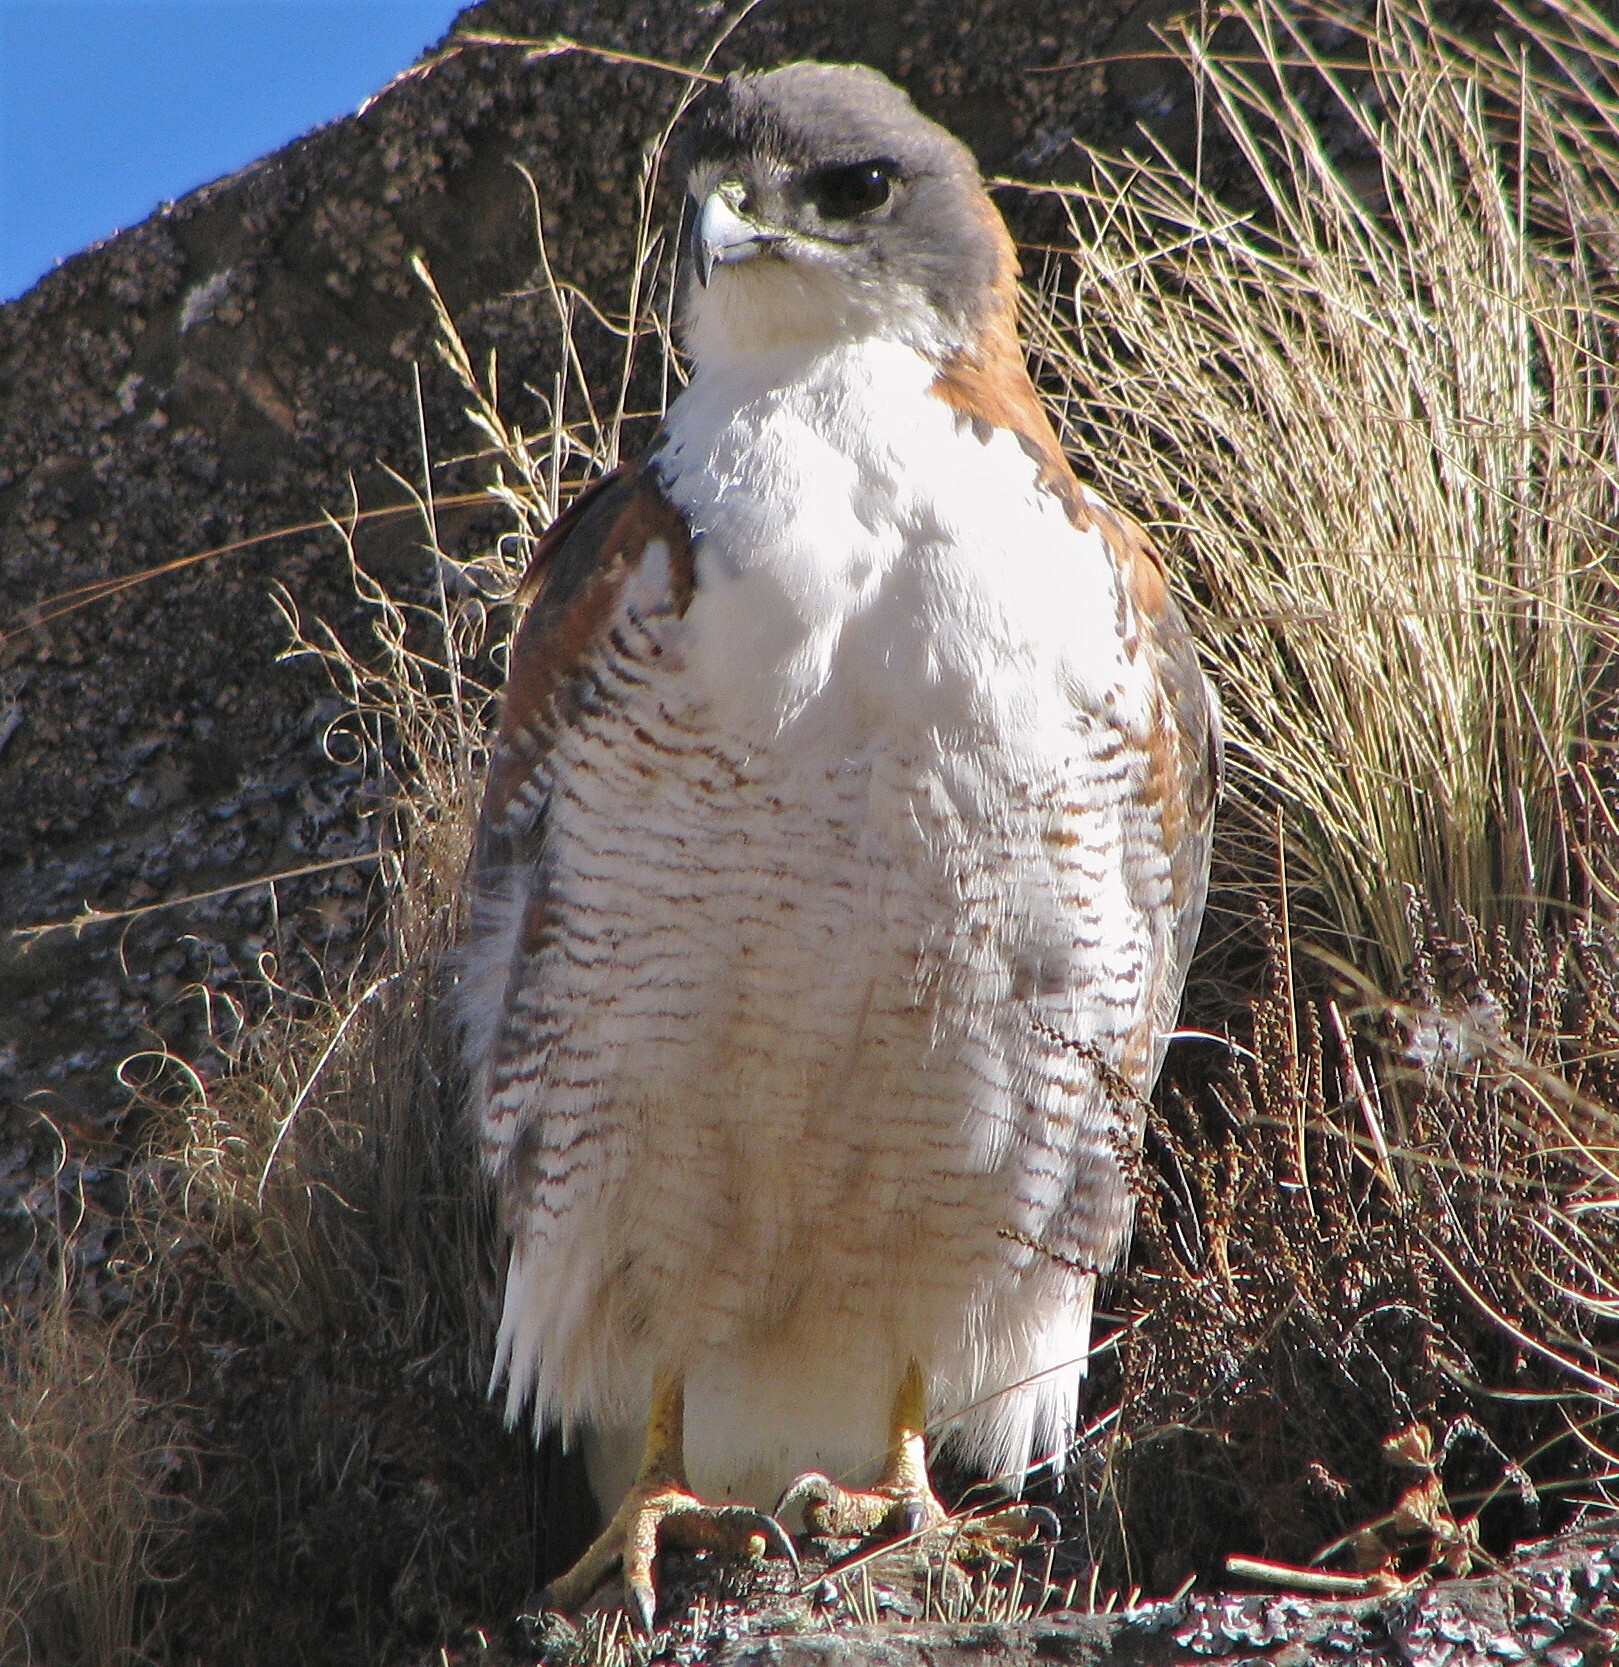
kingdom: Animalia
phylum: Chordata
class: Aves
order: Accipitriformes
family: Accipitridae
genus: Buteo
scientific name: Buteo polyosoma
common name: Variable hawk
